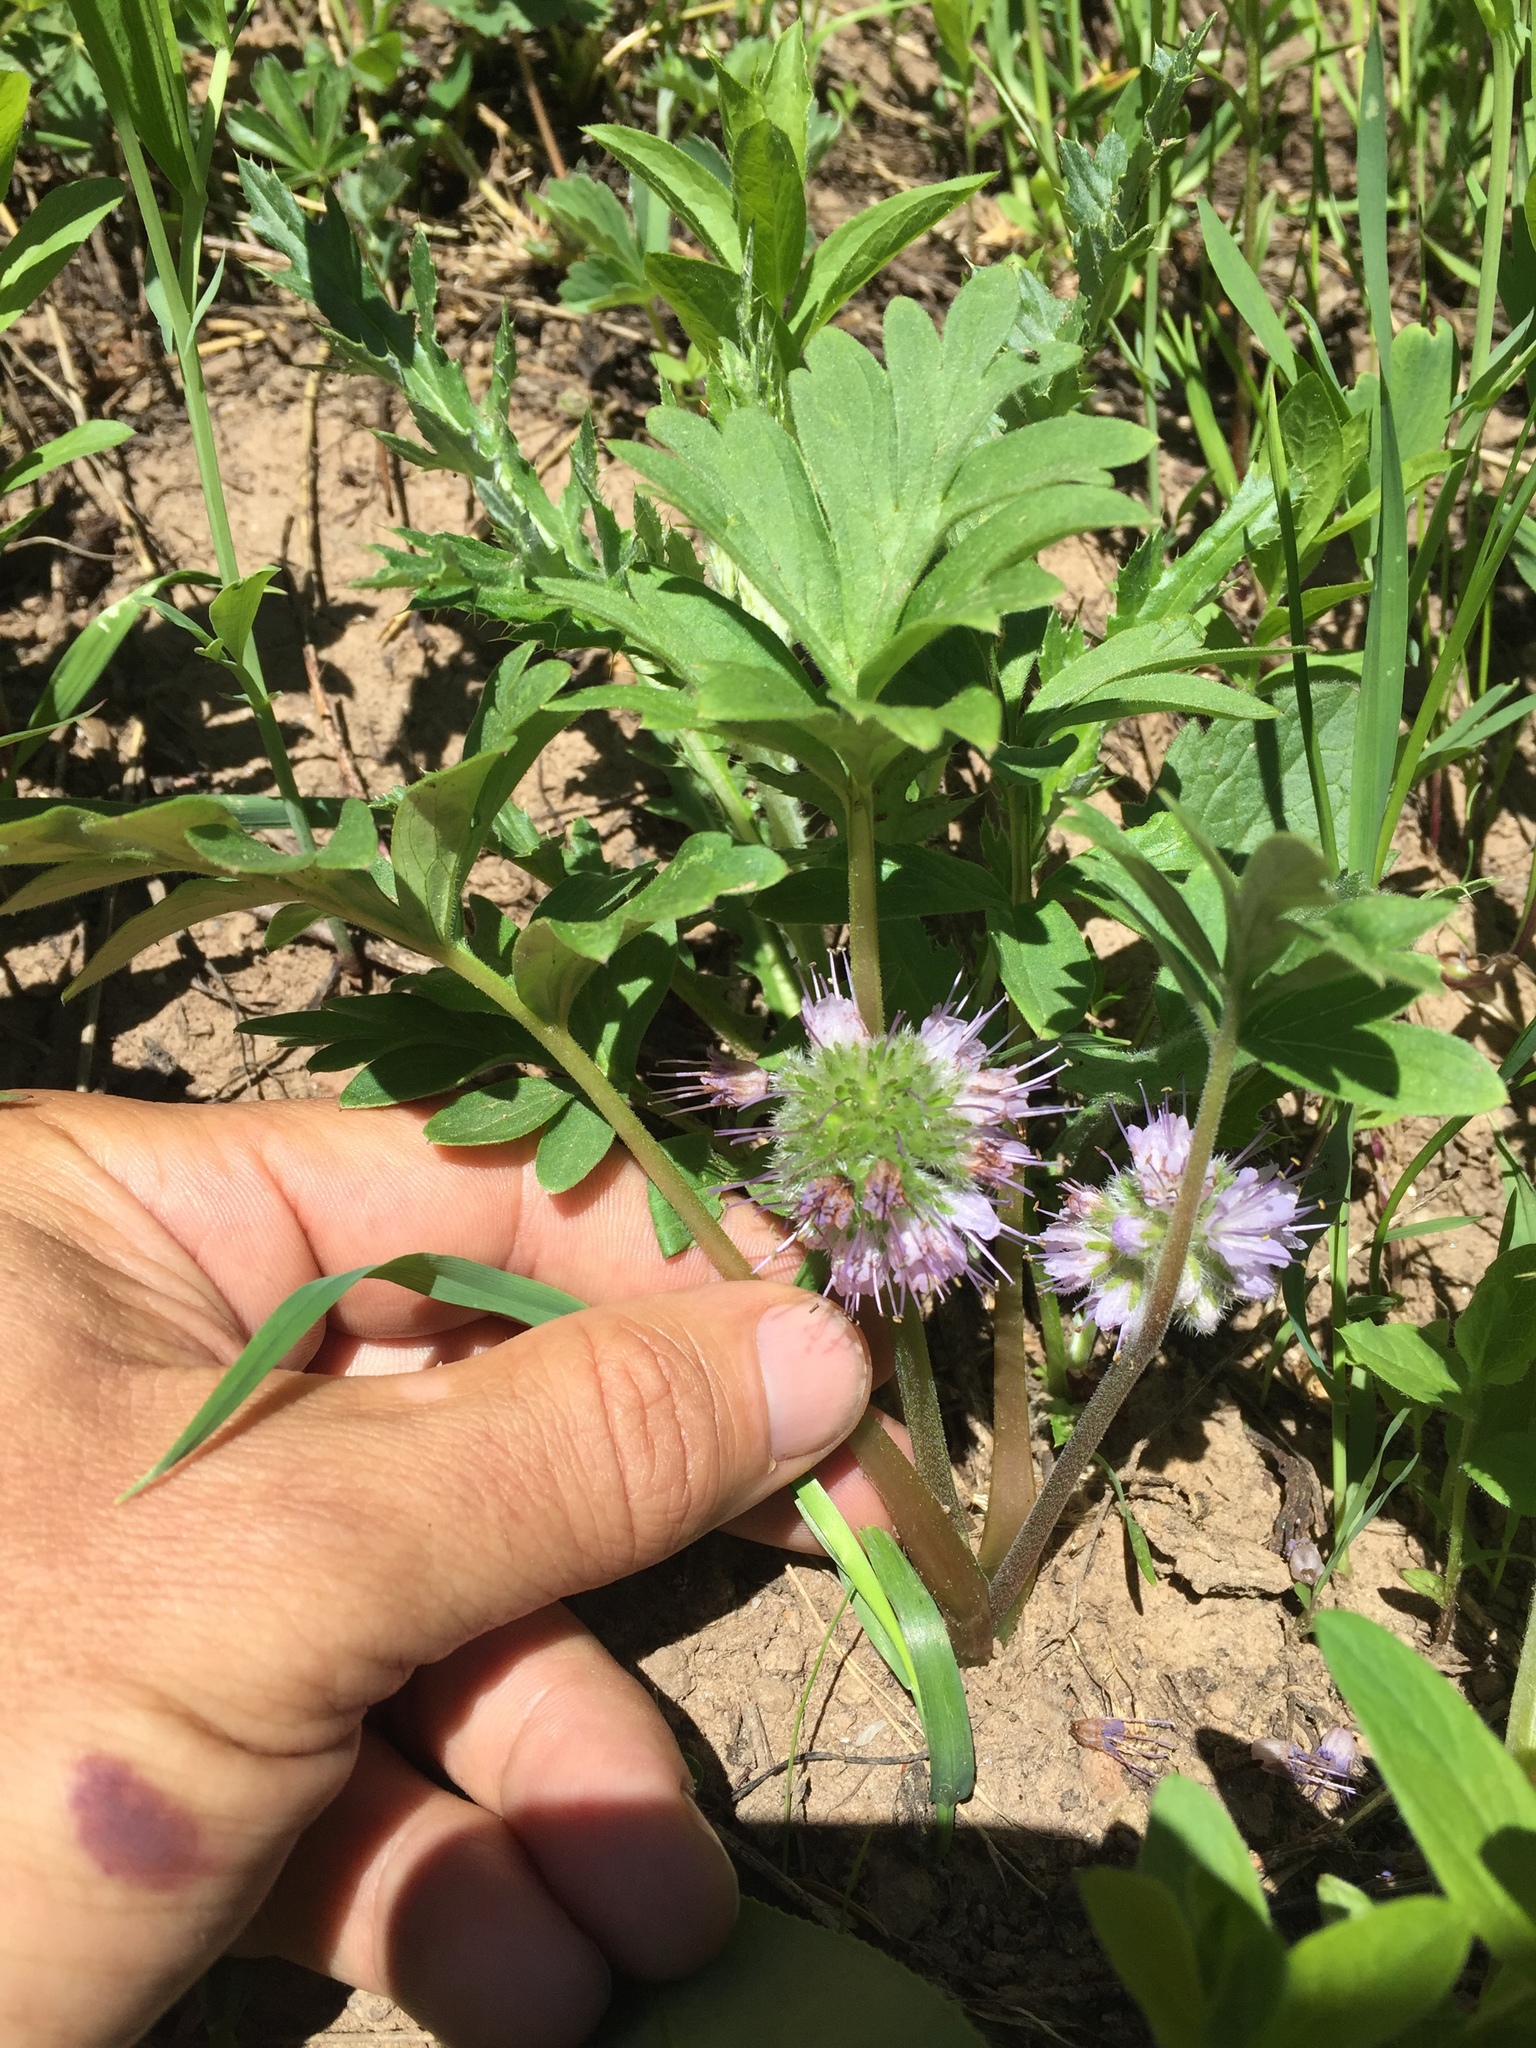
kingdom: Plantae
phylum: Tracheophyta
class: Magnoliopsida
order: Boraginales
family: Hydrophyllaceae
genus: Hydrophyllum
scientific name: Hydrophyllum capitatum
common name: Woollen-breeches
